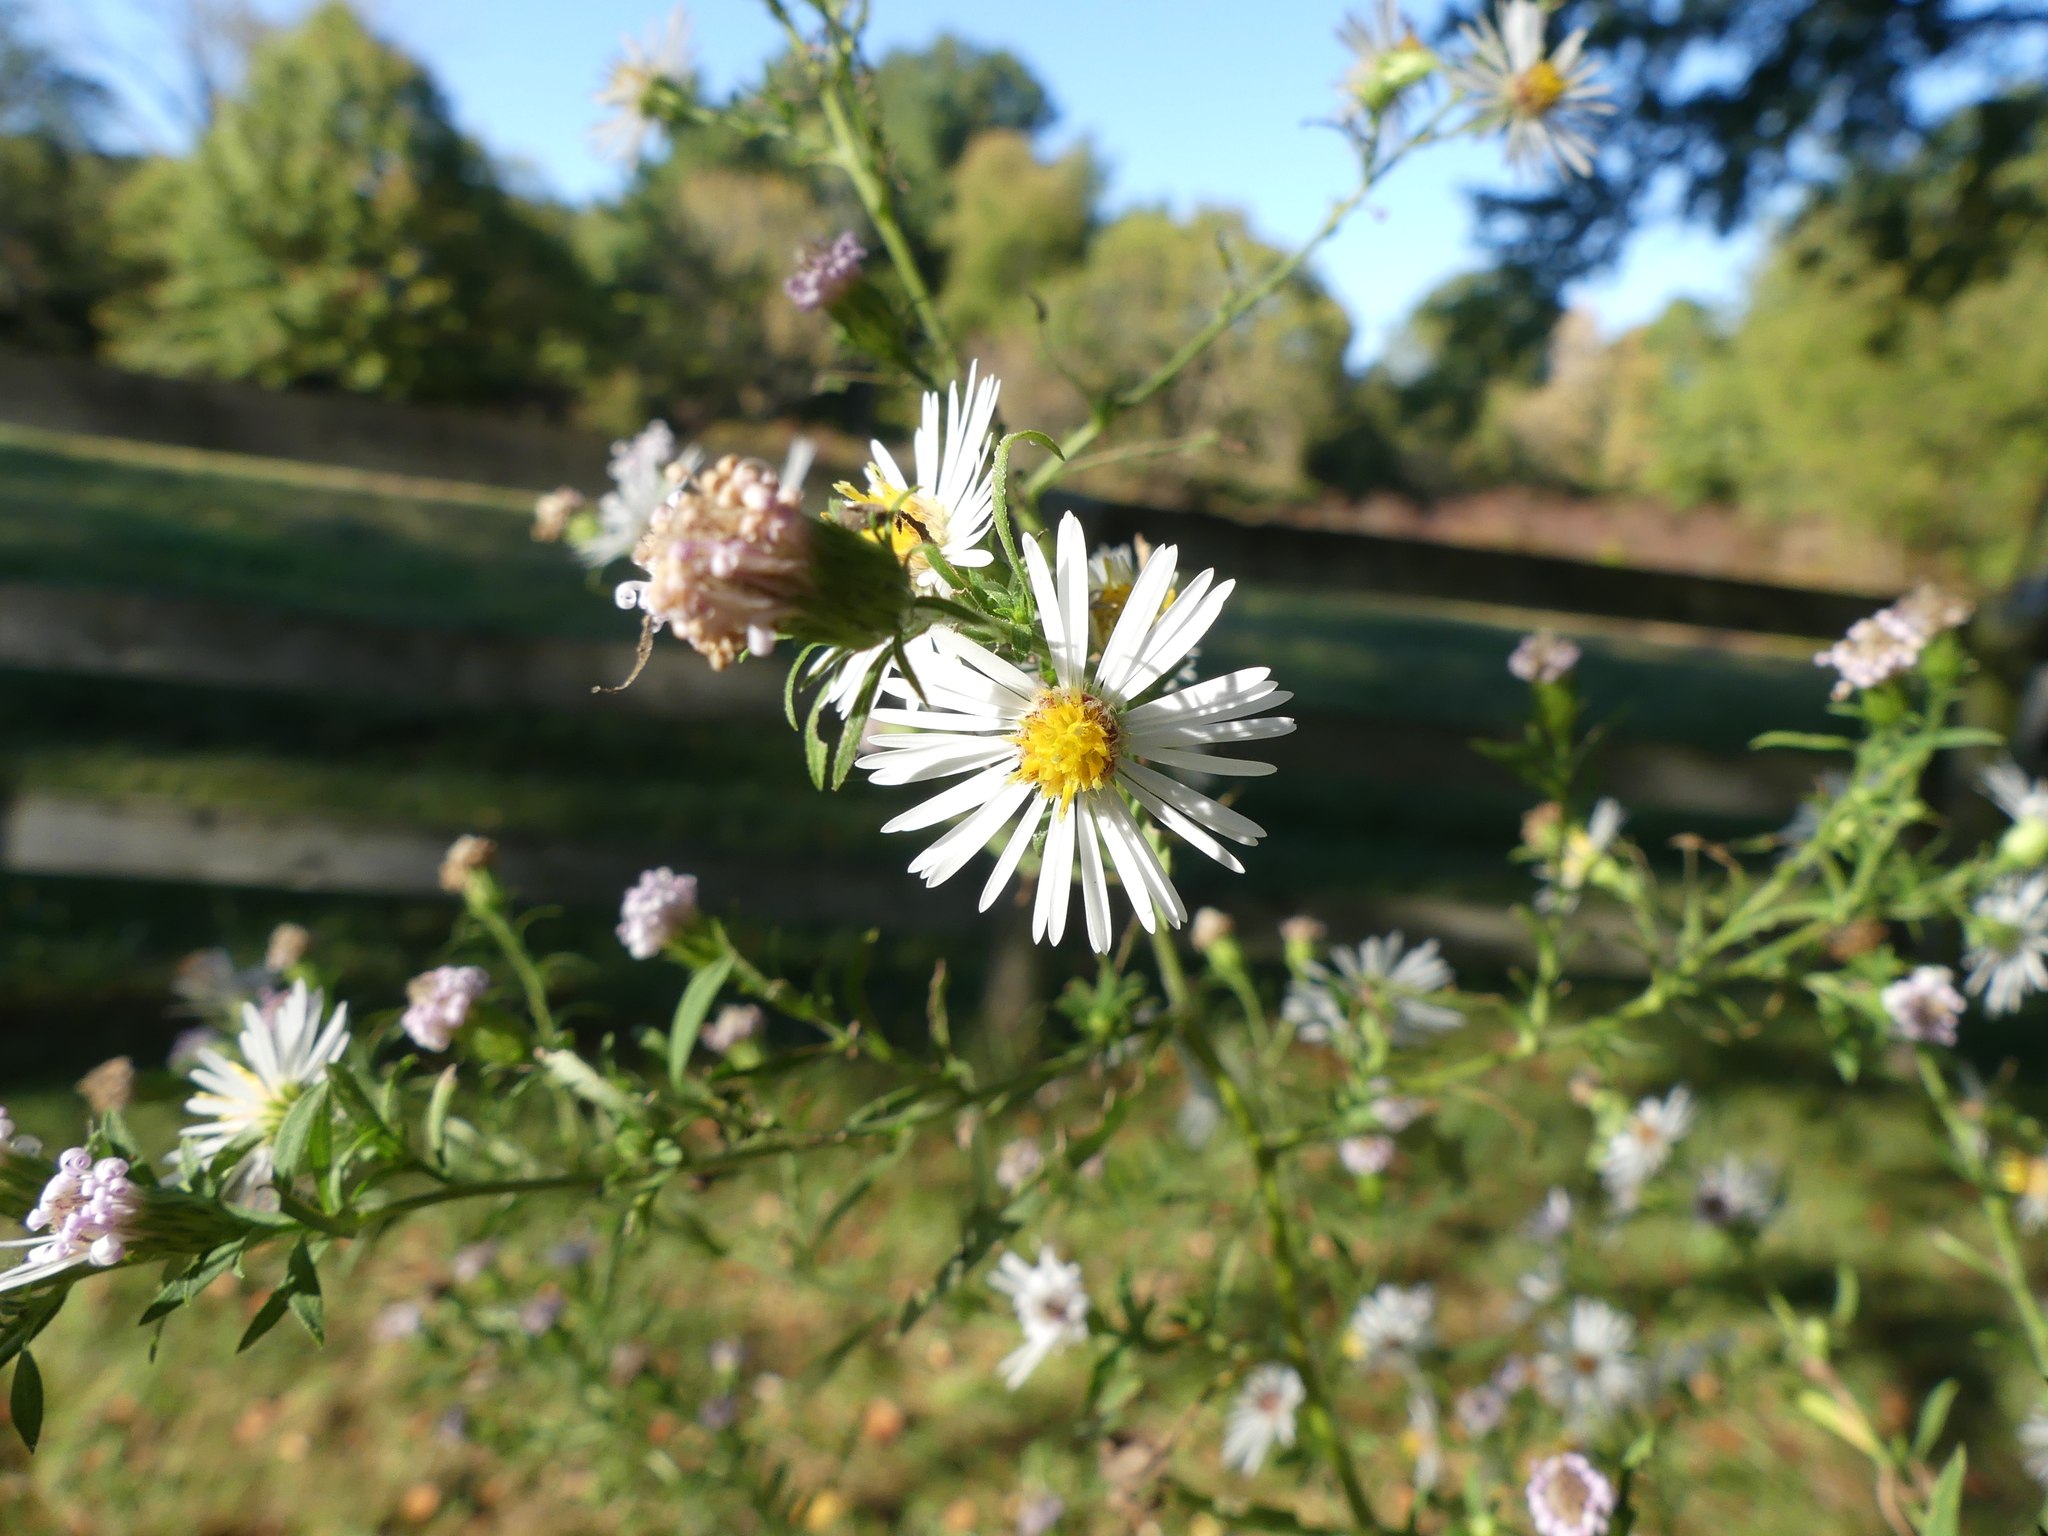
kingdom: Plantae
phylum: Tracheophyta
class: Magnoliopsida
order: Asterales
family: Asteraceae
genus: Symphyotrichum
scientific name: Symphyotrichum lanceolatum
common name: Panicled aster
